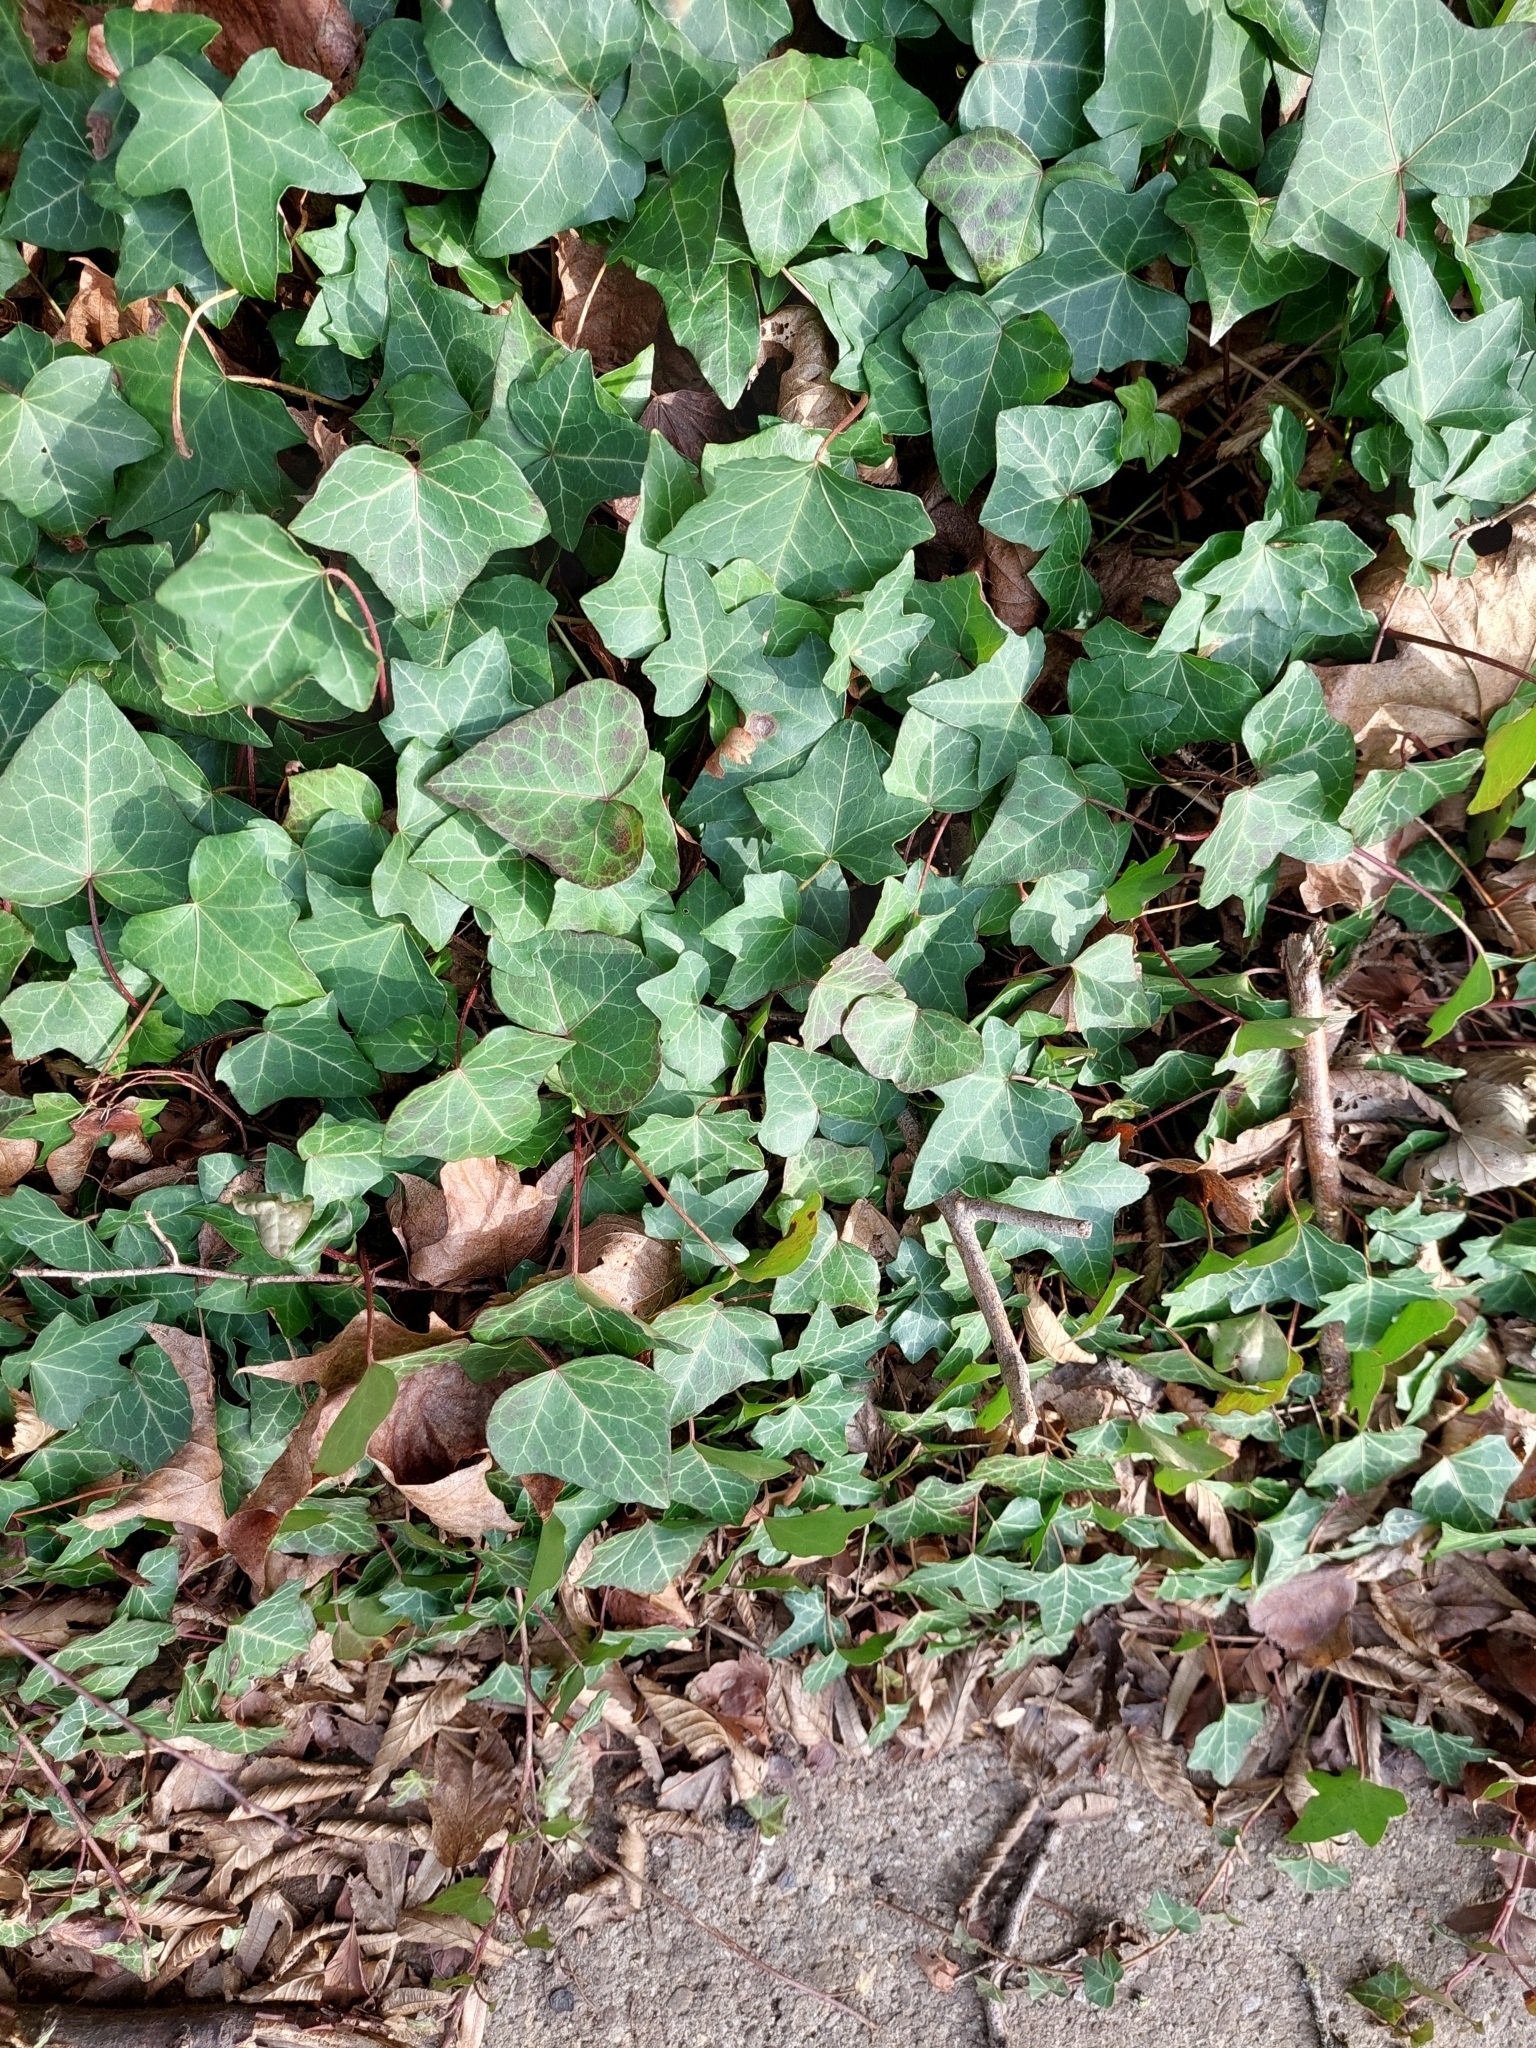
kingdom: Plantae
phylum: Tracheophyta
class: Magnoliopsida
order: Apiales
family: Araliaceae
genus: Hedera
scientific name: Hedera helix
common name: Ivy
